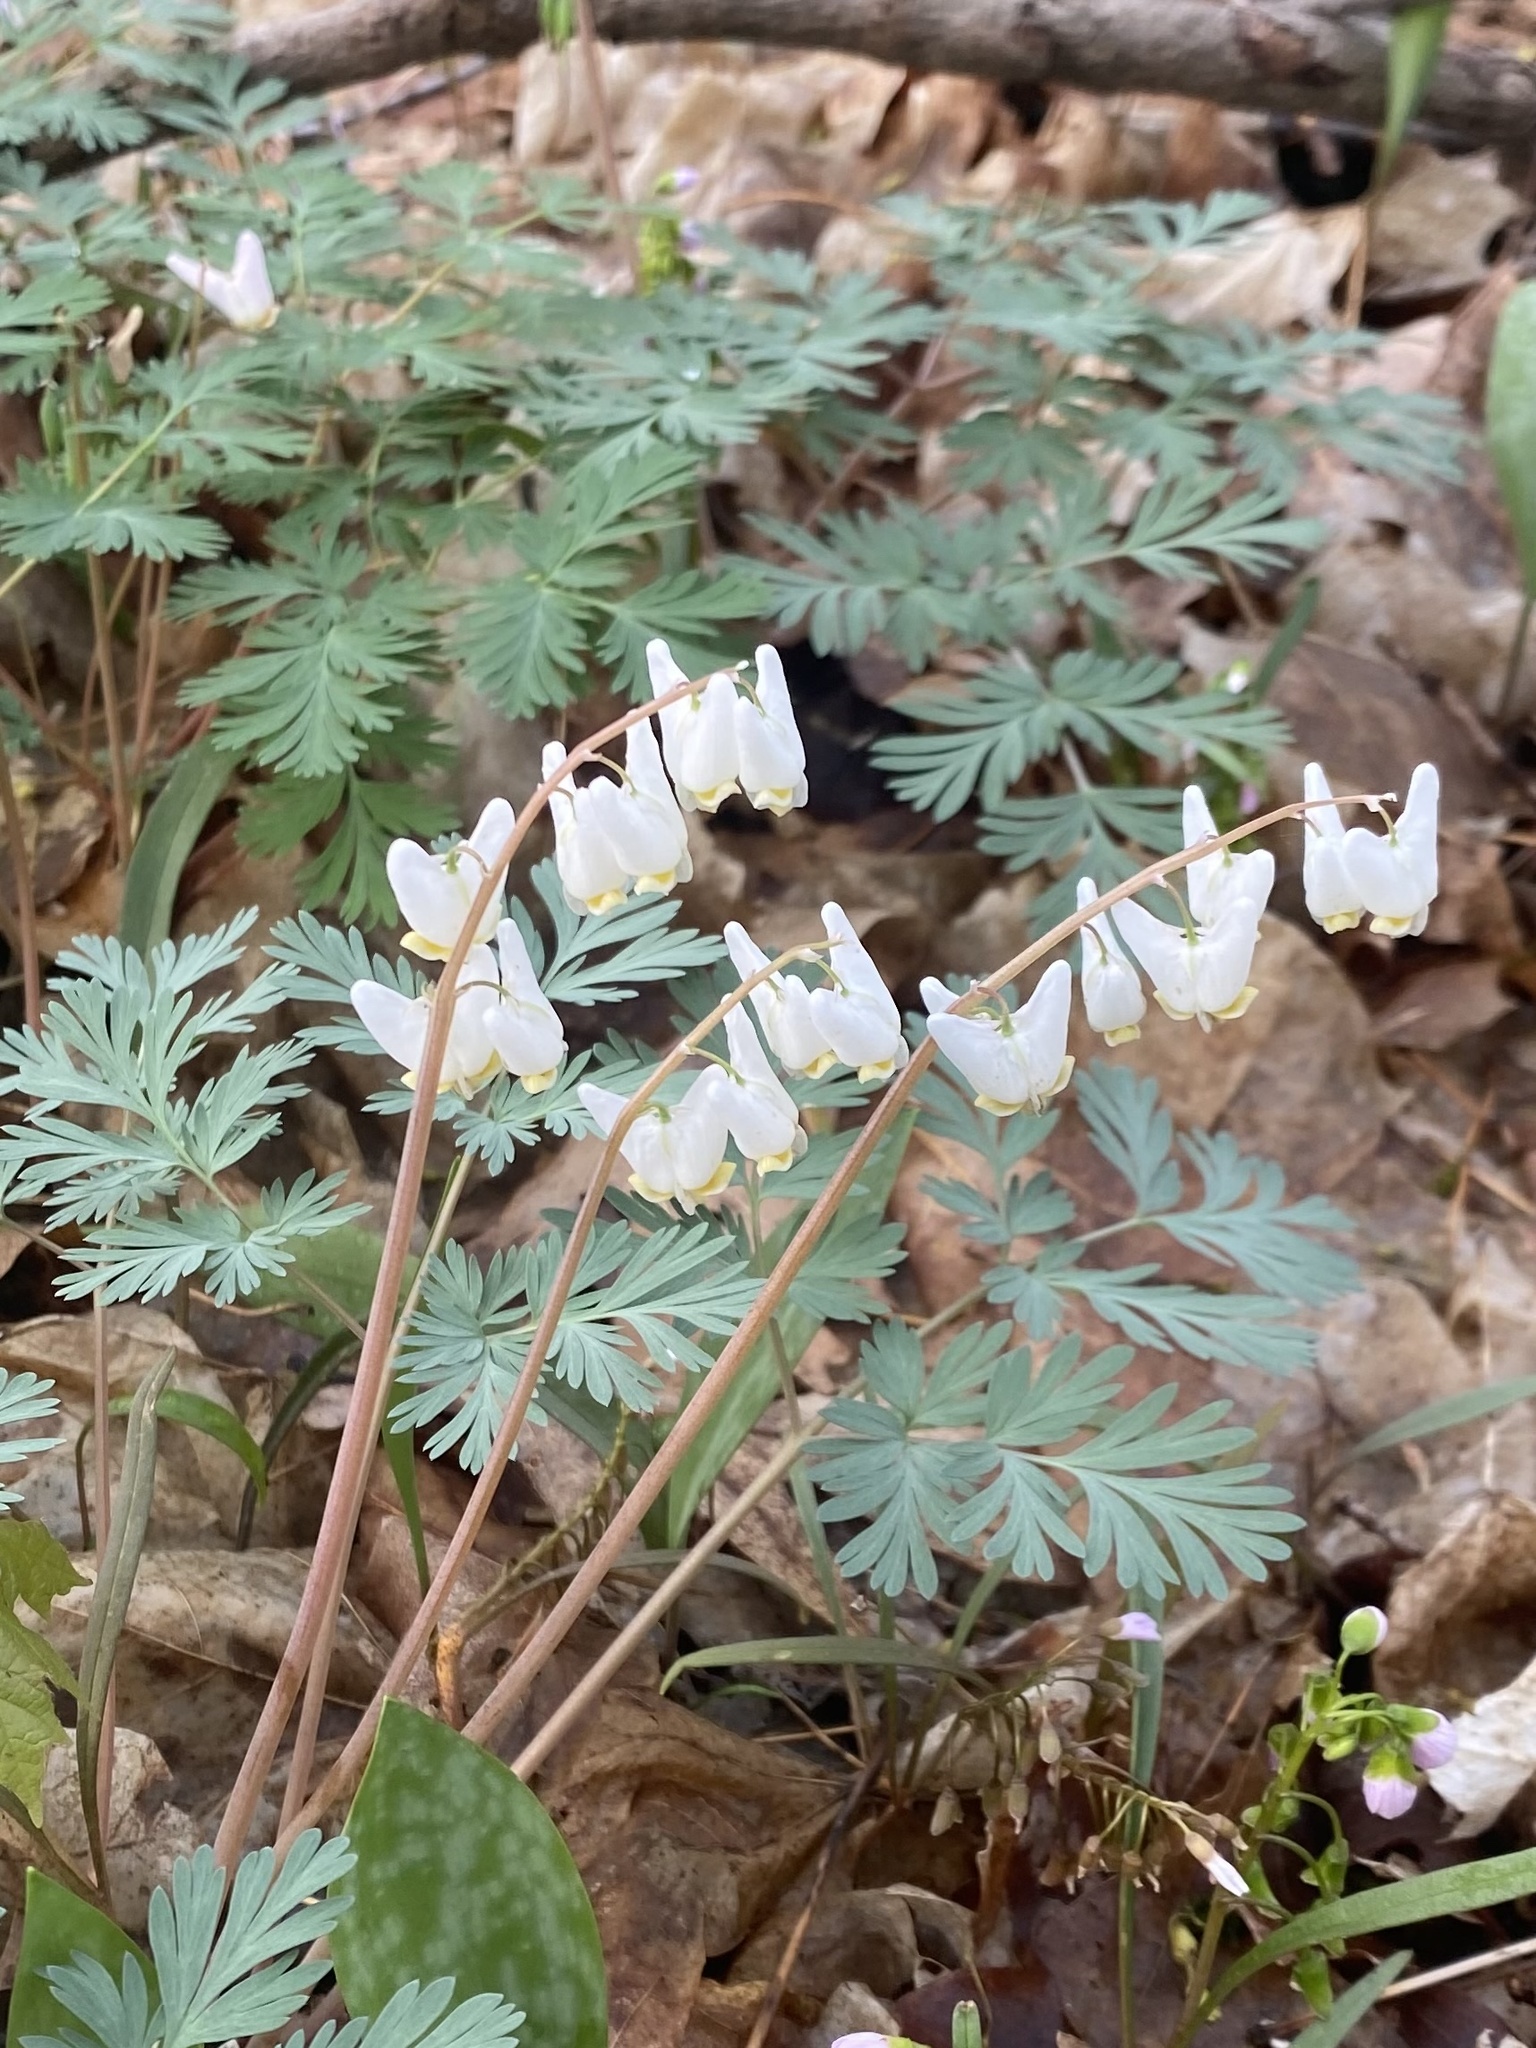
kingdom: Plantae
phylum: Tracheophyta
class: Magnoliopsida
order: Ranunculales
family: Papaveraceae
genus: Dicentra
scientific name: Dicentra cucullaria
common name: Dutchman's breeches
